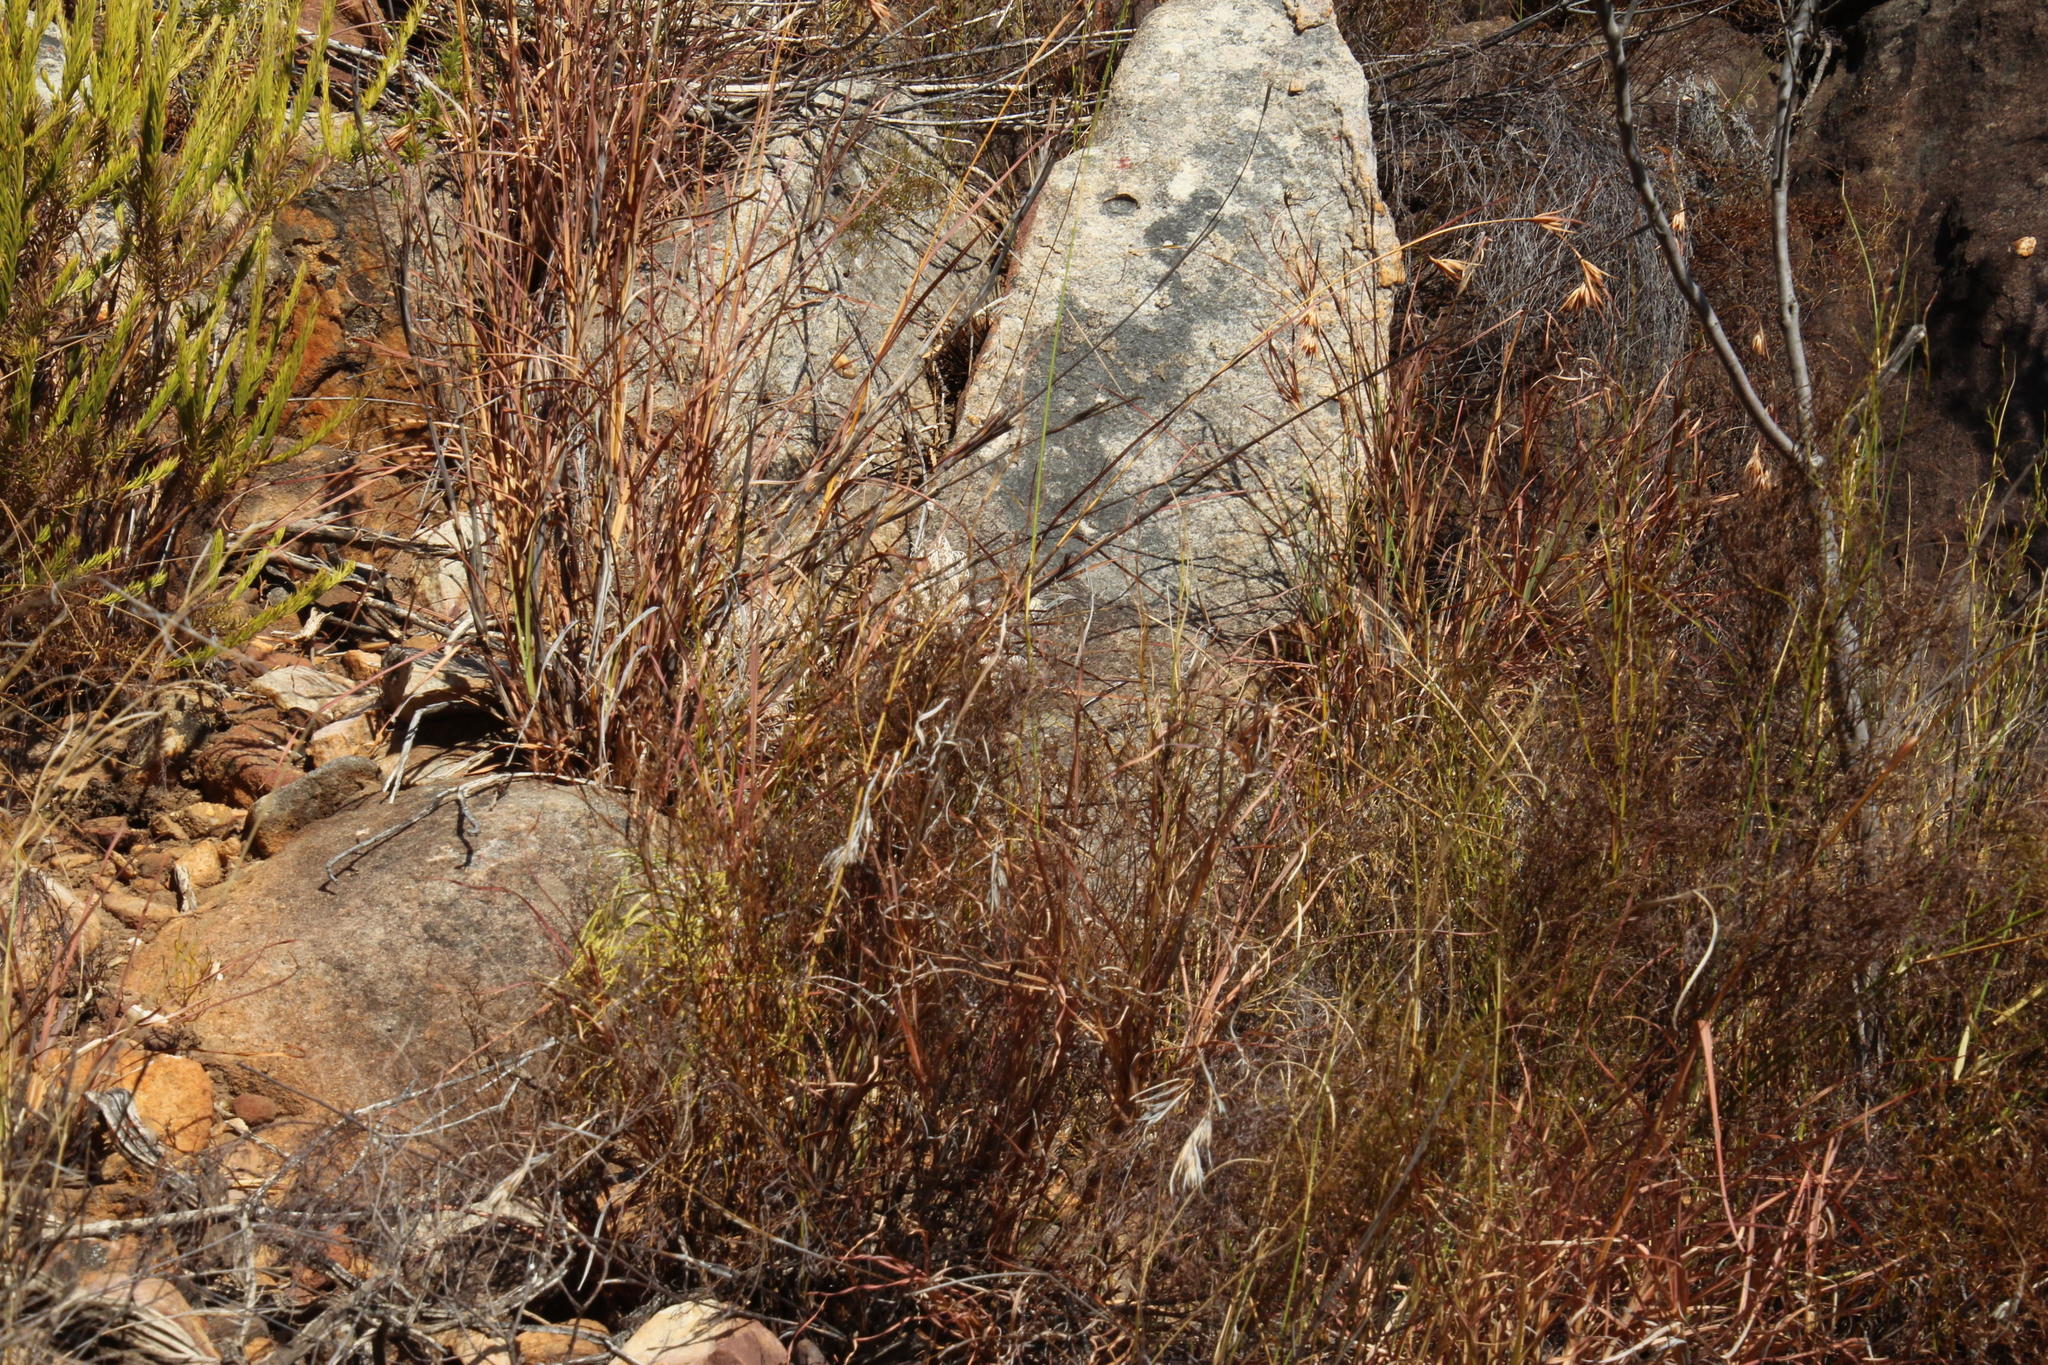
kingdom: Plantae
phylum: Tracheophyta
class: Liliopsida
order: Poales
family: Poaceae
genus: Themeda
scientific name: Themeda triandra
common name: Kangaroo grass
